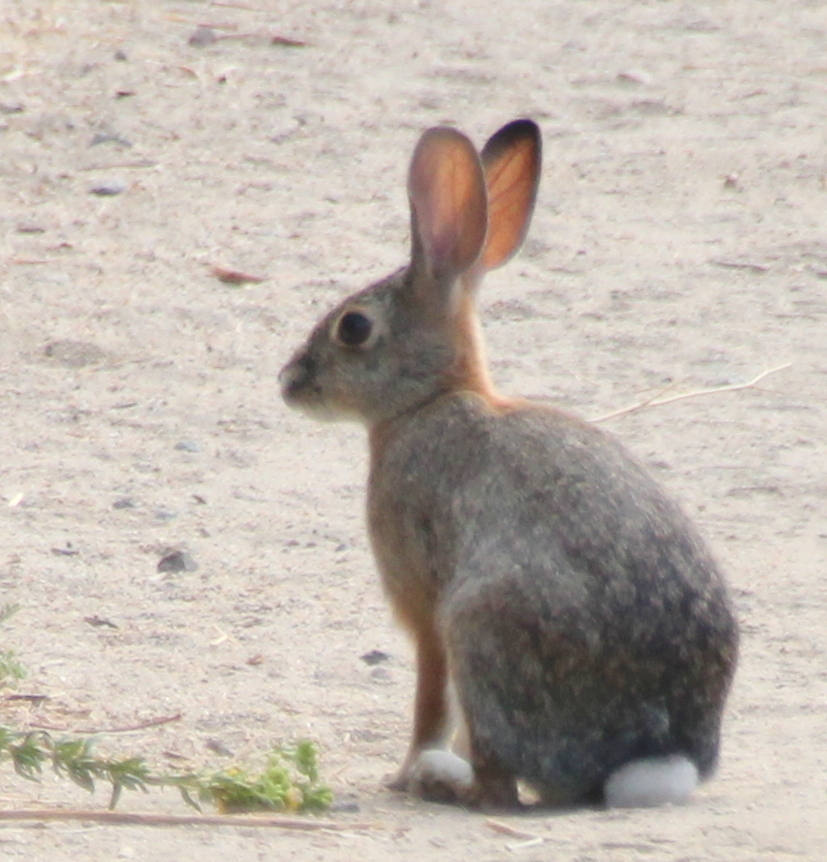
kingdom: Animalia
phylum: Chordata
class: Mammalia
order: Lagomorpha
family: Leporidae
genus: Sylvilagus
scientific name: Sylvilagus audubonii
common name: Desert cottontail
